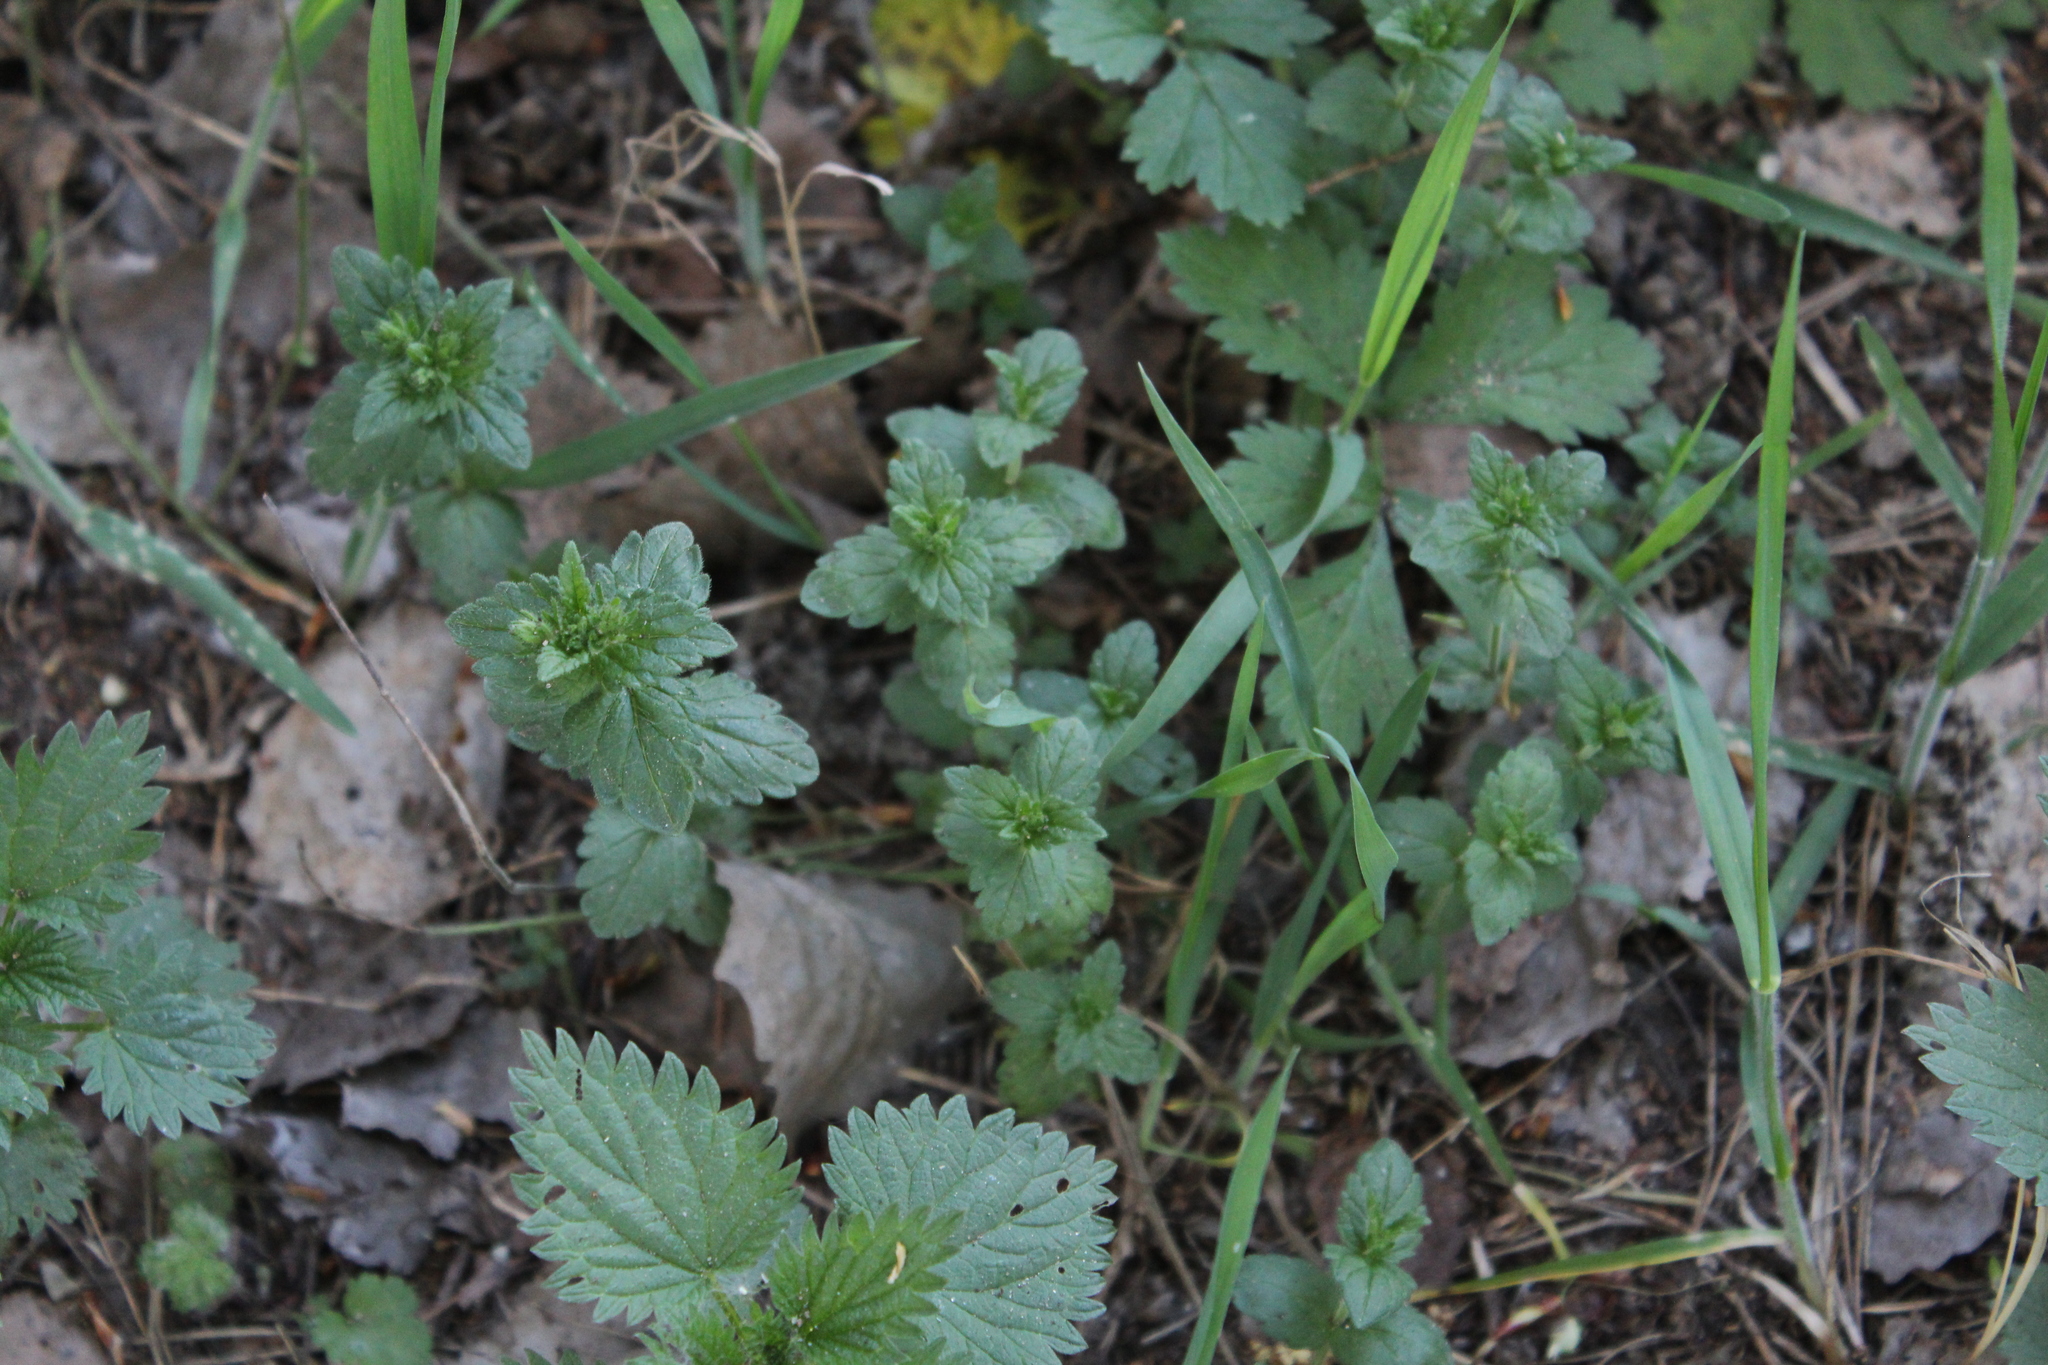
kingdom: Plantae
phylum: Tracheophyta
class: Magnoliopsida
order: Lamiales
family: Plantaginaceae
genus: Veronica
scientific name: Veronica chamaedrys
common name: Germander speedwell
